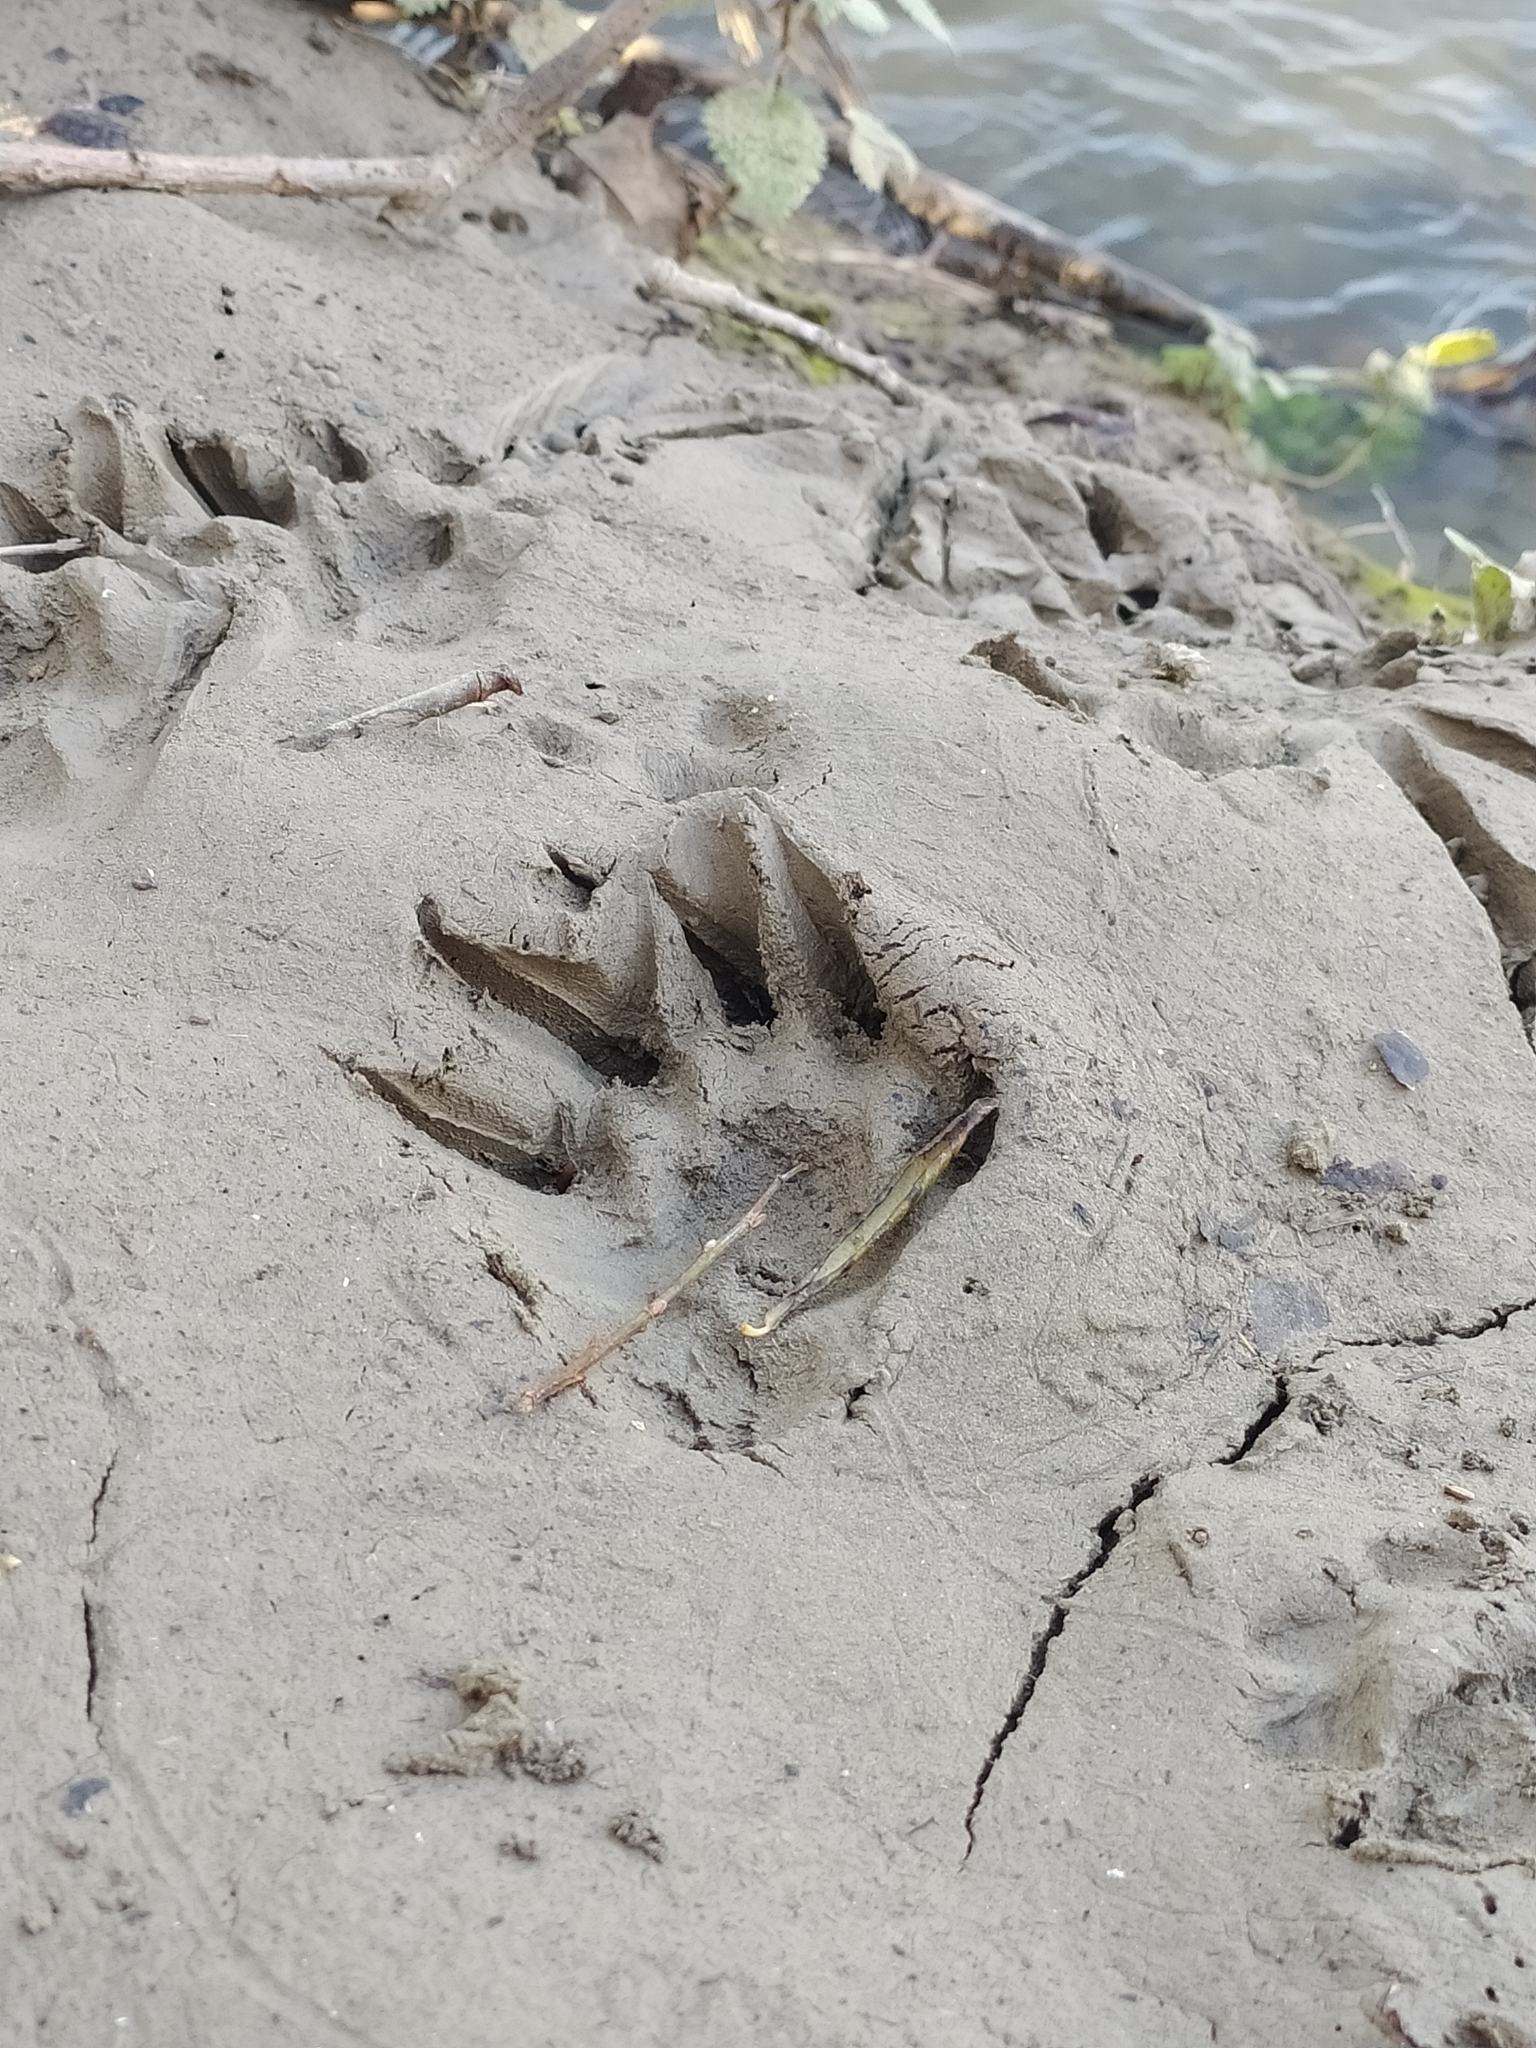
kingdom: Animalia
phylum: Chordata
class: Mammalia
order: Carnivora
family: Mustelidae
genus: Meles
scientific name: Meles meles
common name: Eurasian badger
